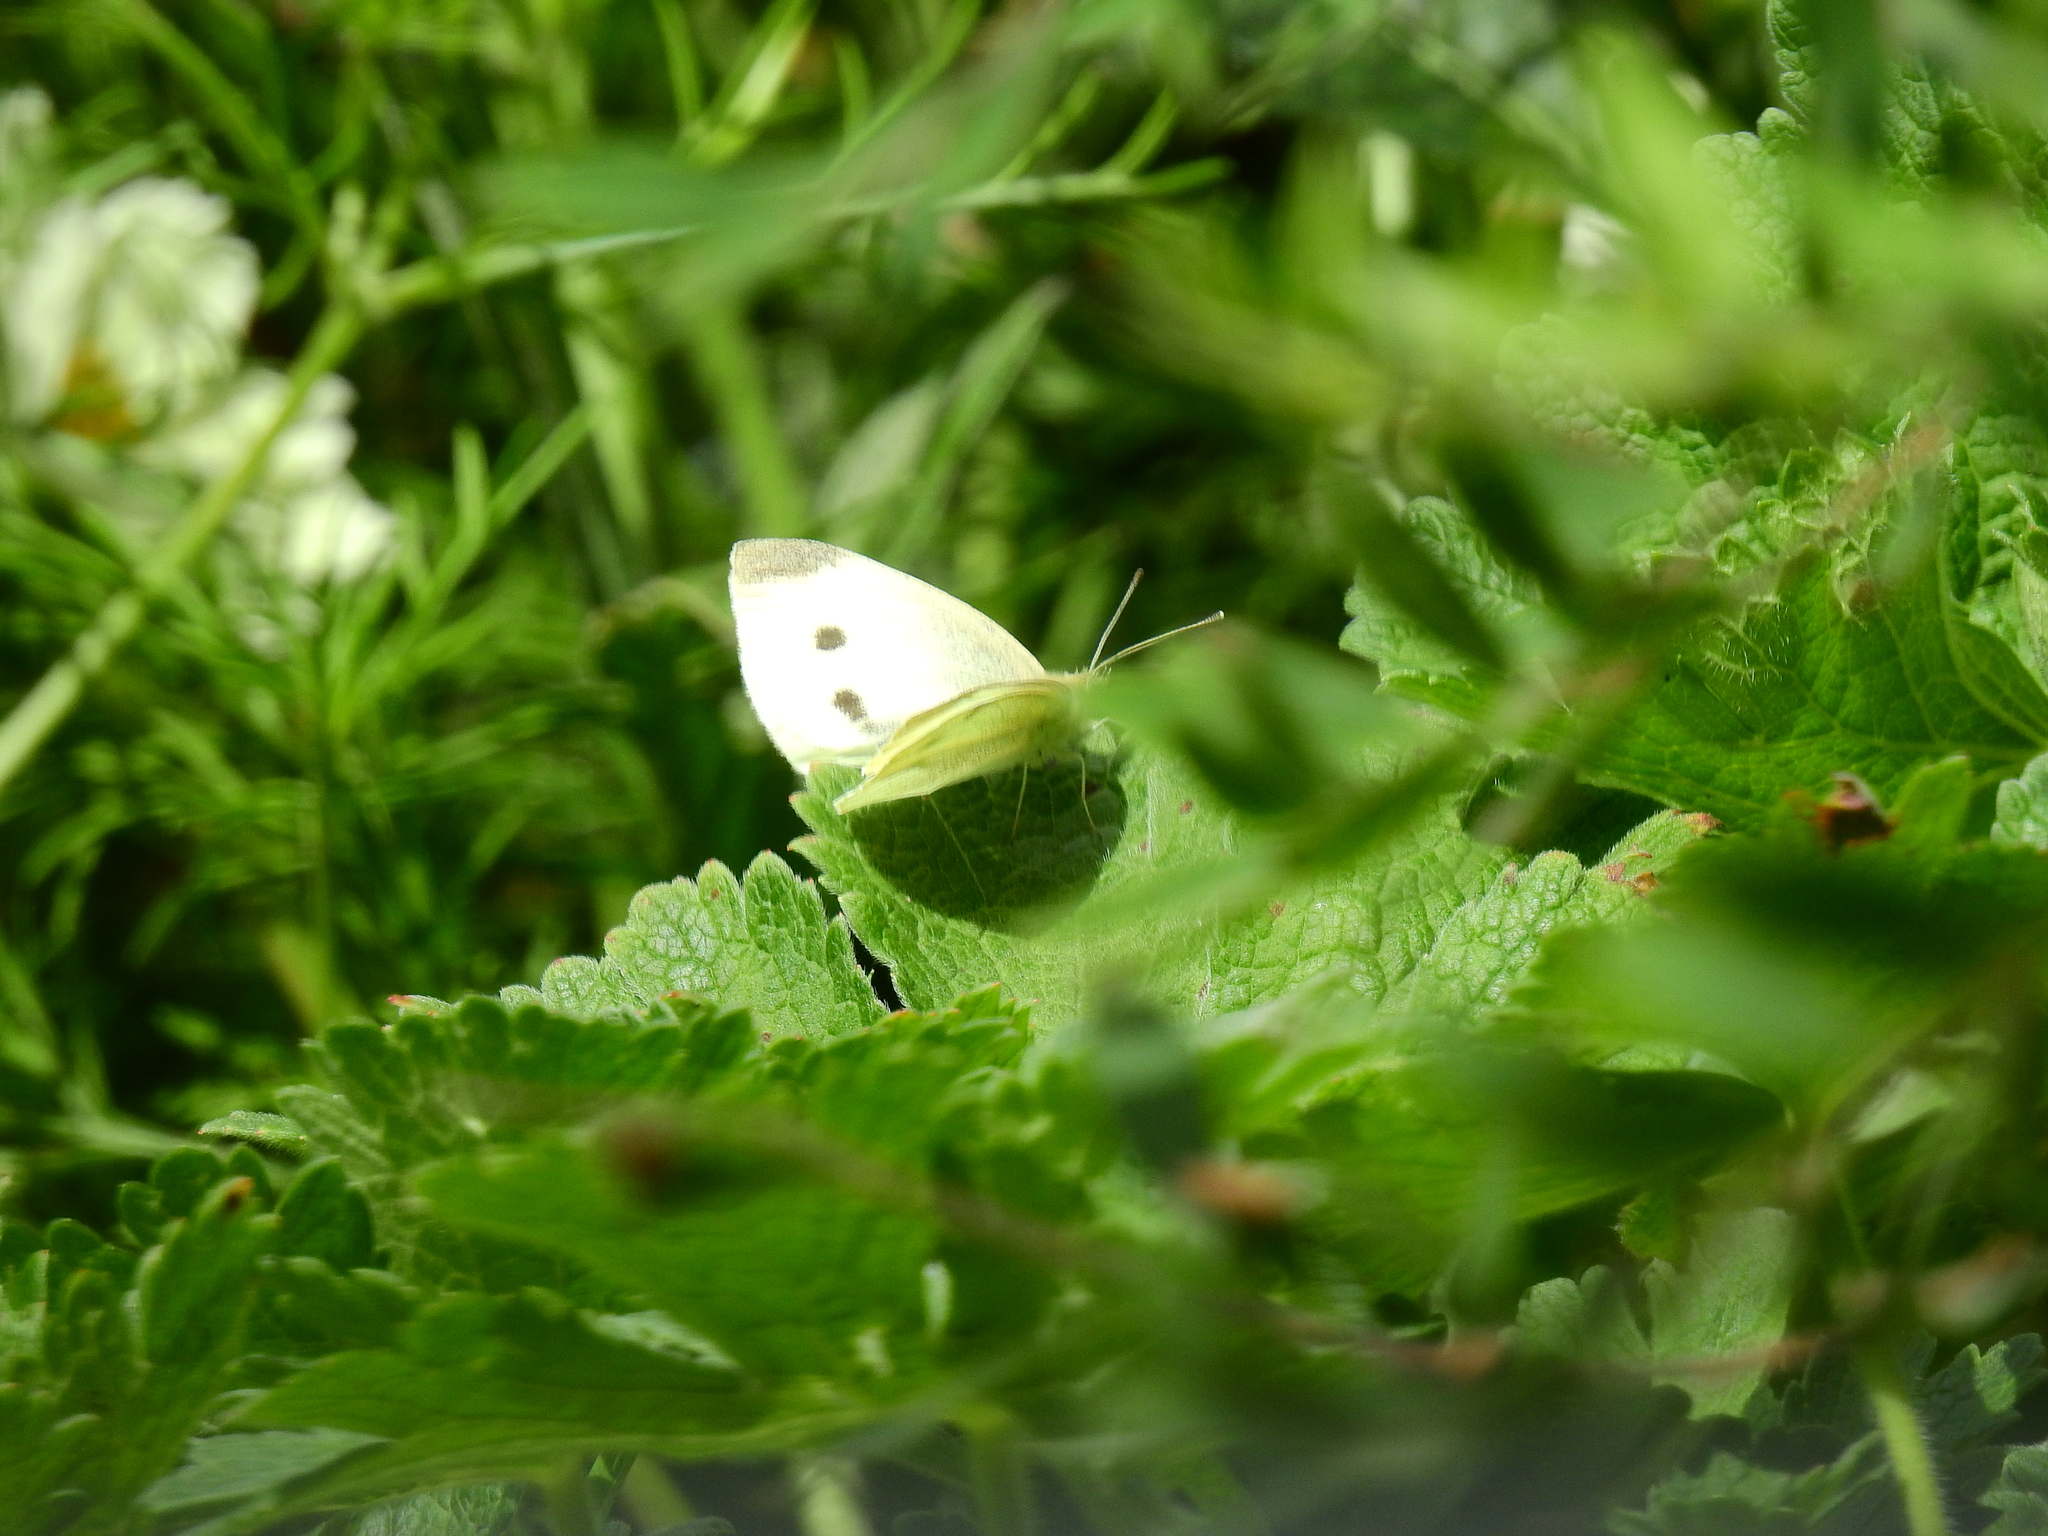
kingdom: Animalia
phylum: Arthropoda
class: Insecta
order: Lepidoptera
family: Pieridae
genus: Pieris
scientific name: Pieris rapae
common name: Small white
